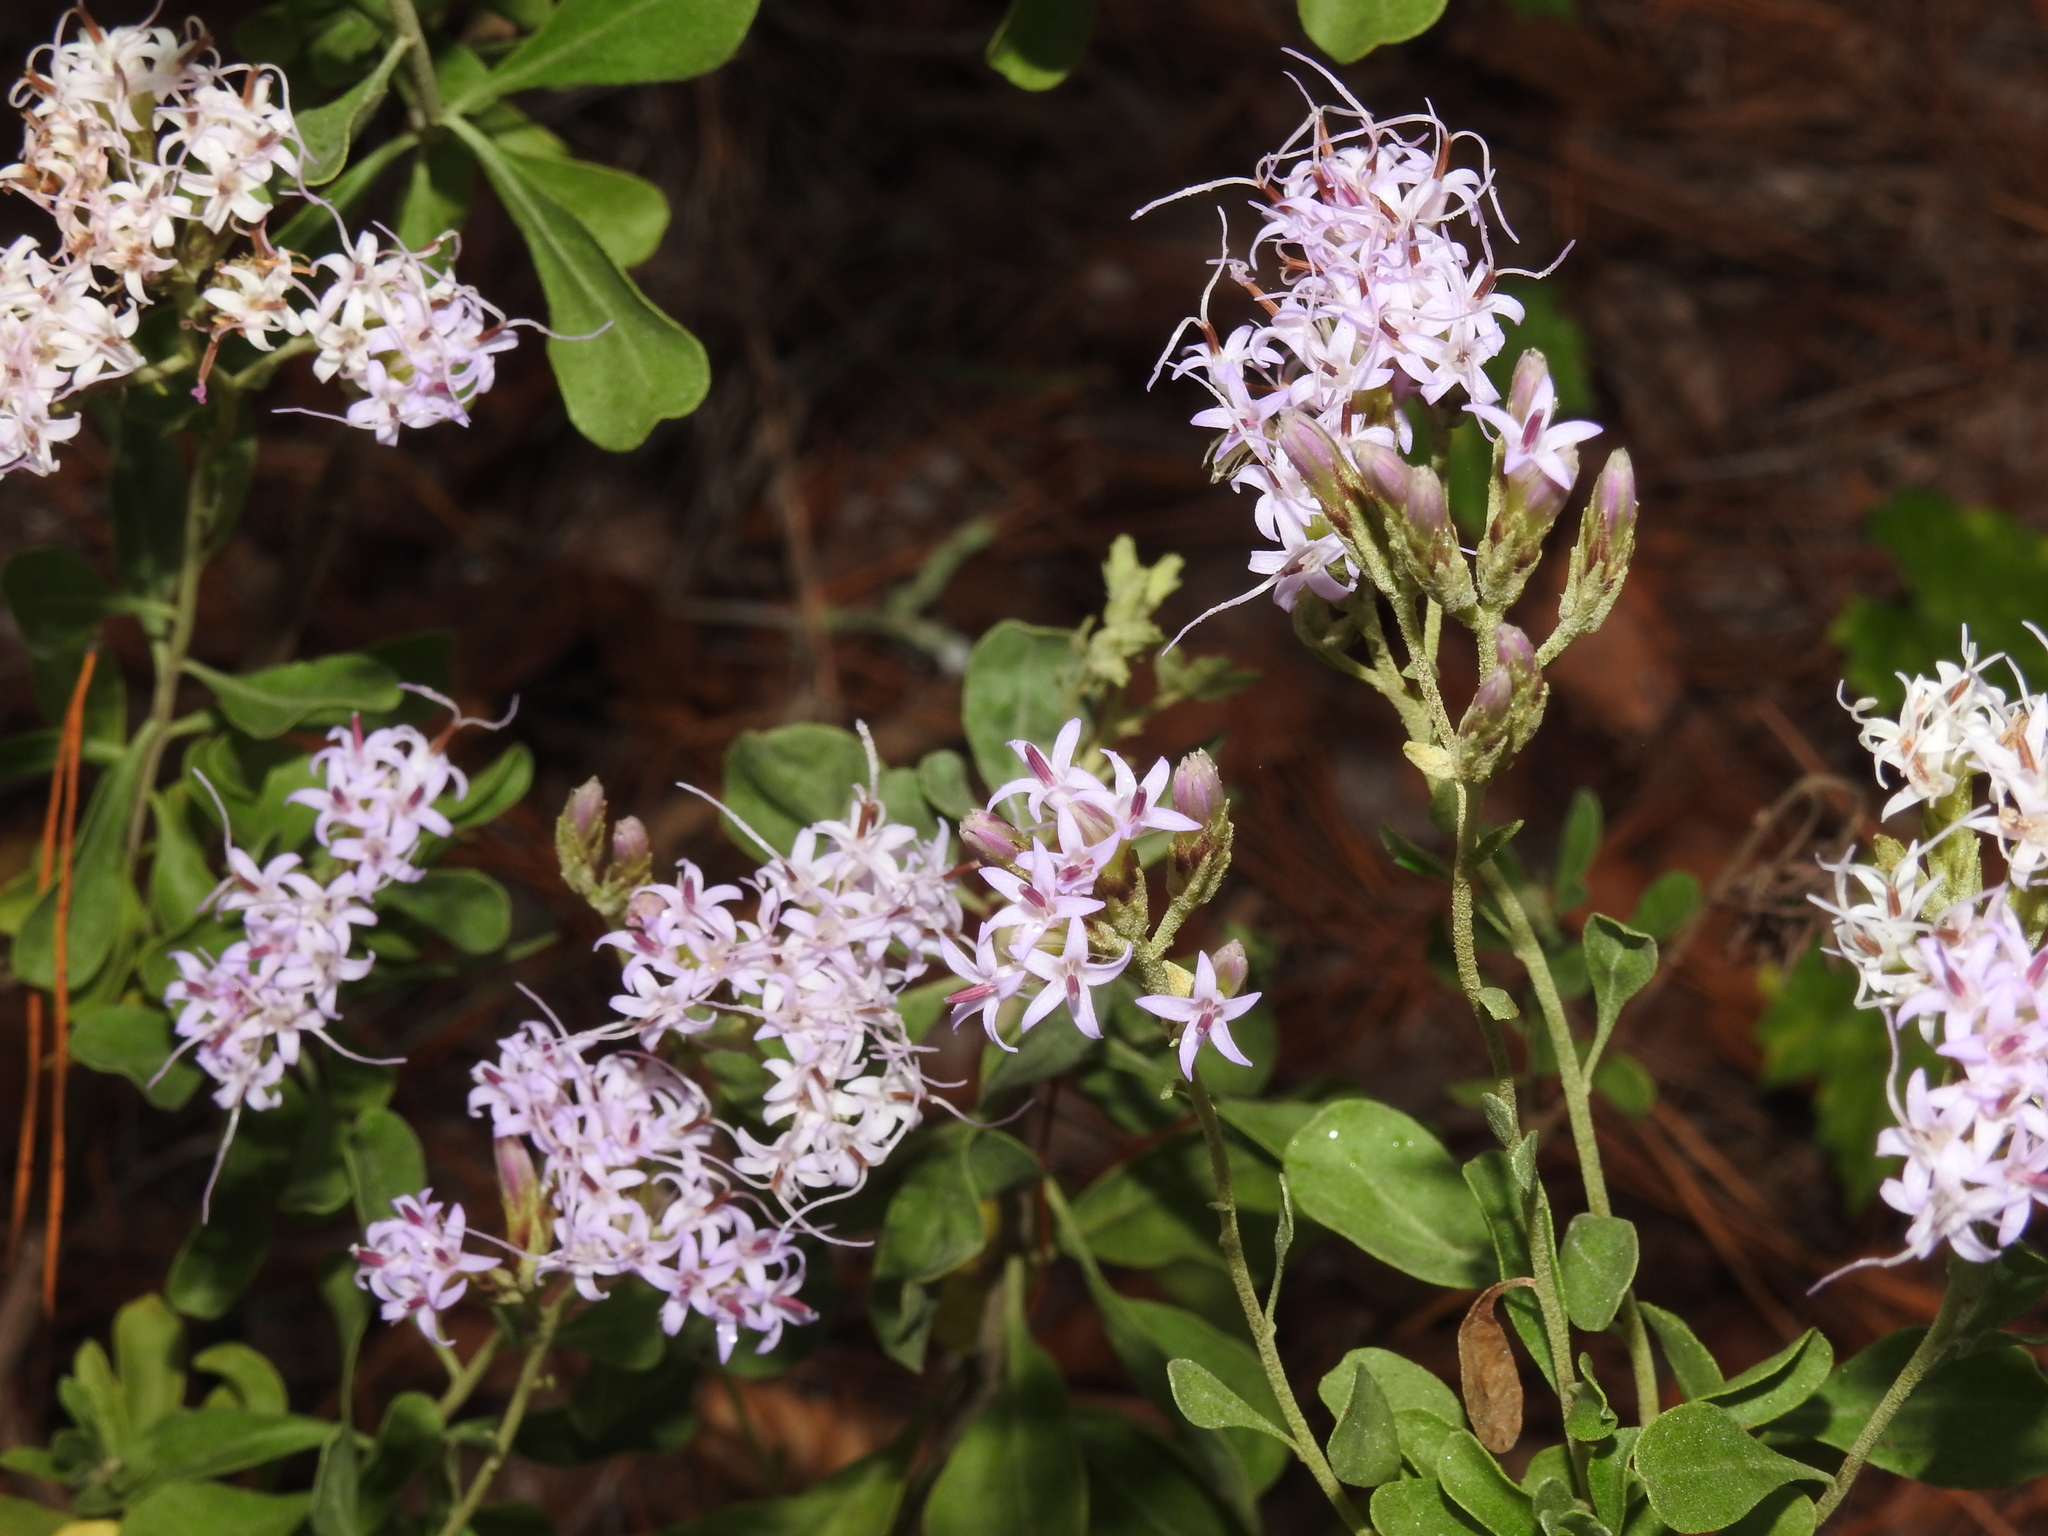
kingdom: Plantae
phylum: Tracheophyta
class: Magnoliopsida
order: Asterales
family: Asteraceae
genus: Garberia
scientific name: Garberia heterophylla
